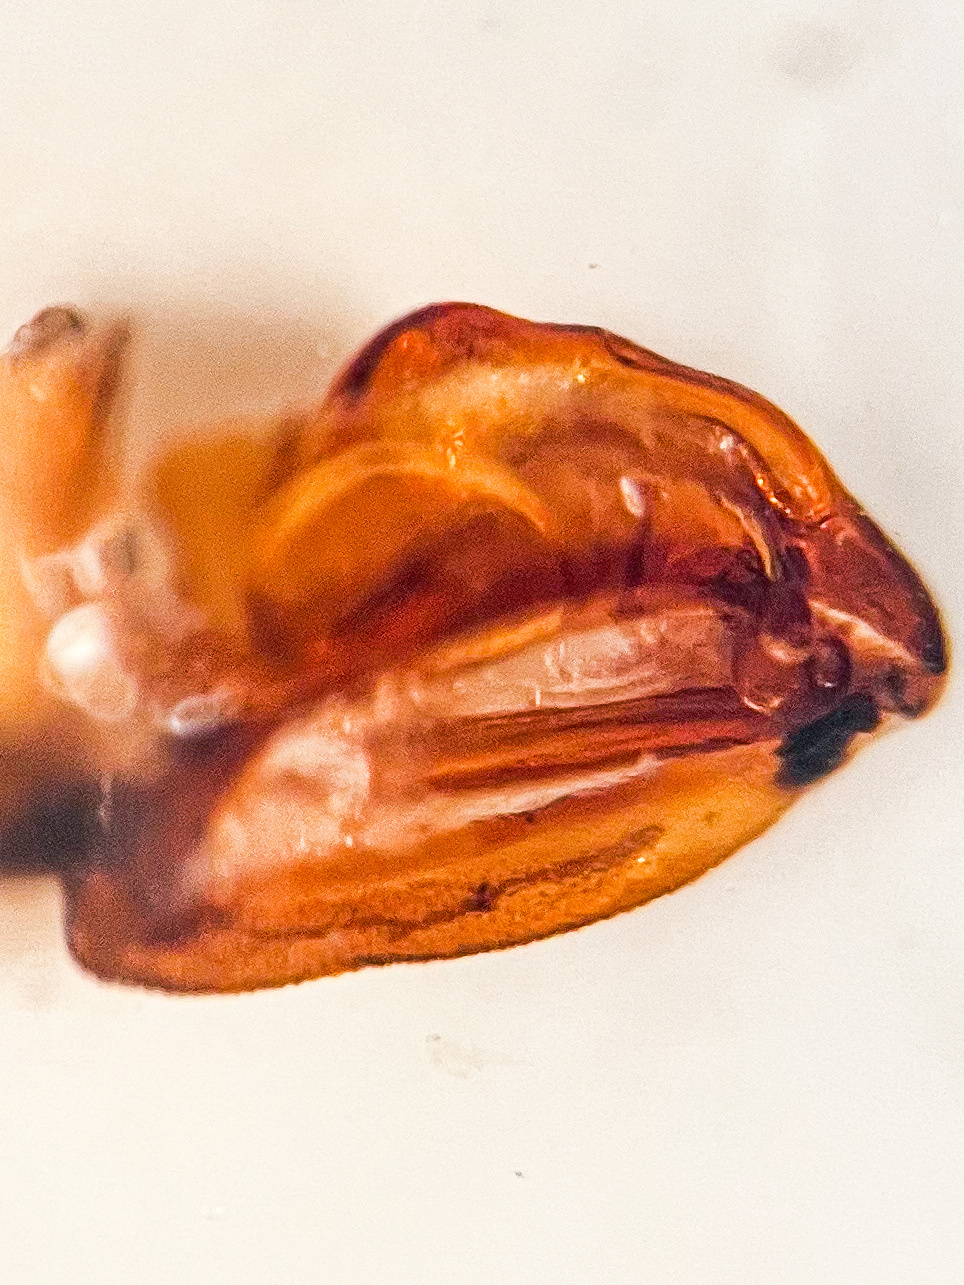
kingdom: Animalia
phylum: Arthropoda
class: Insecta
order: Hemiptera
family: Cixiidae
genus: Cixius
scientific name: Cixius sticticus
